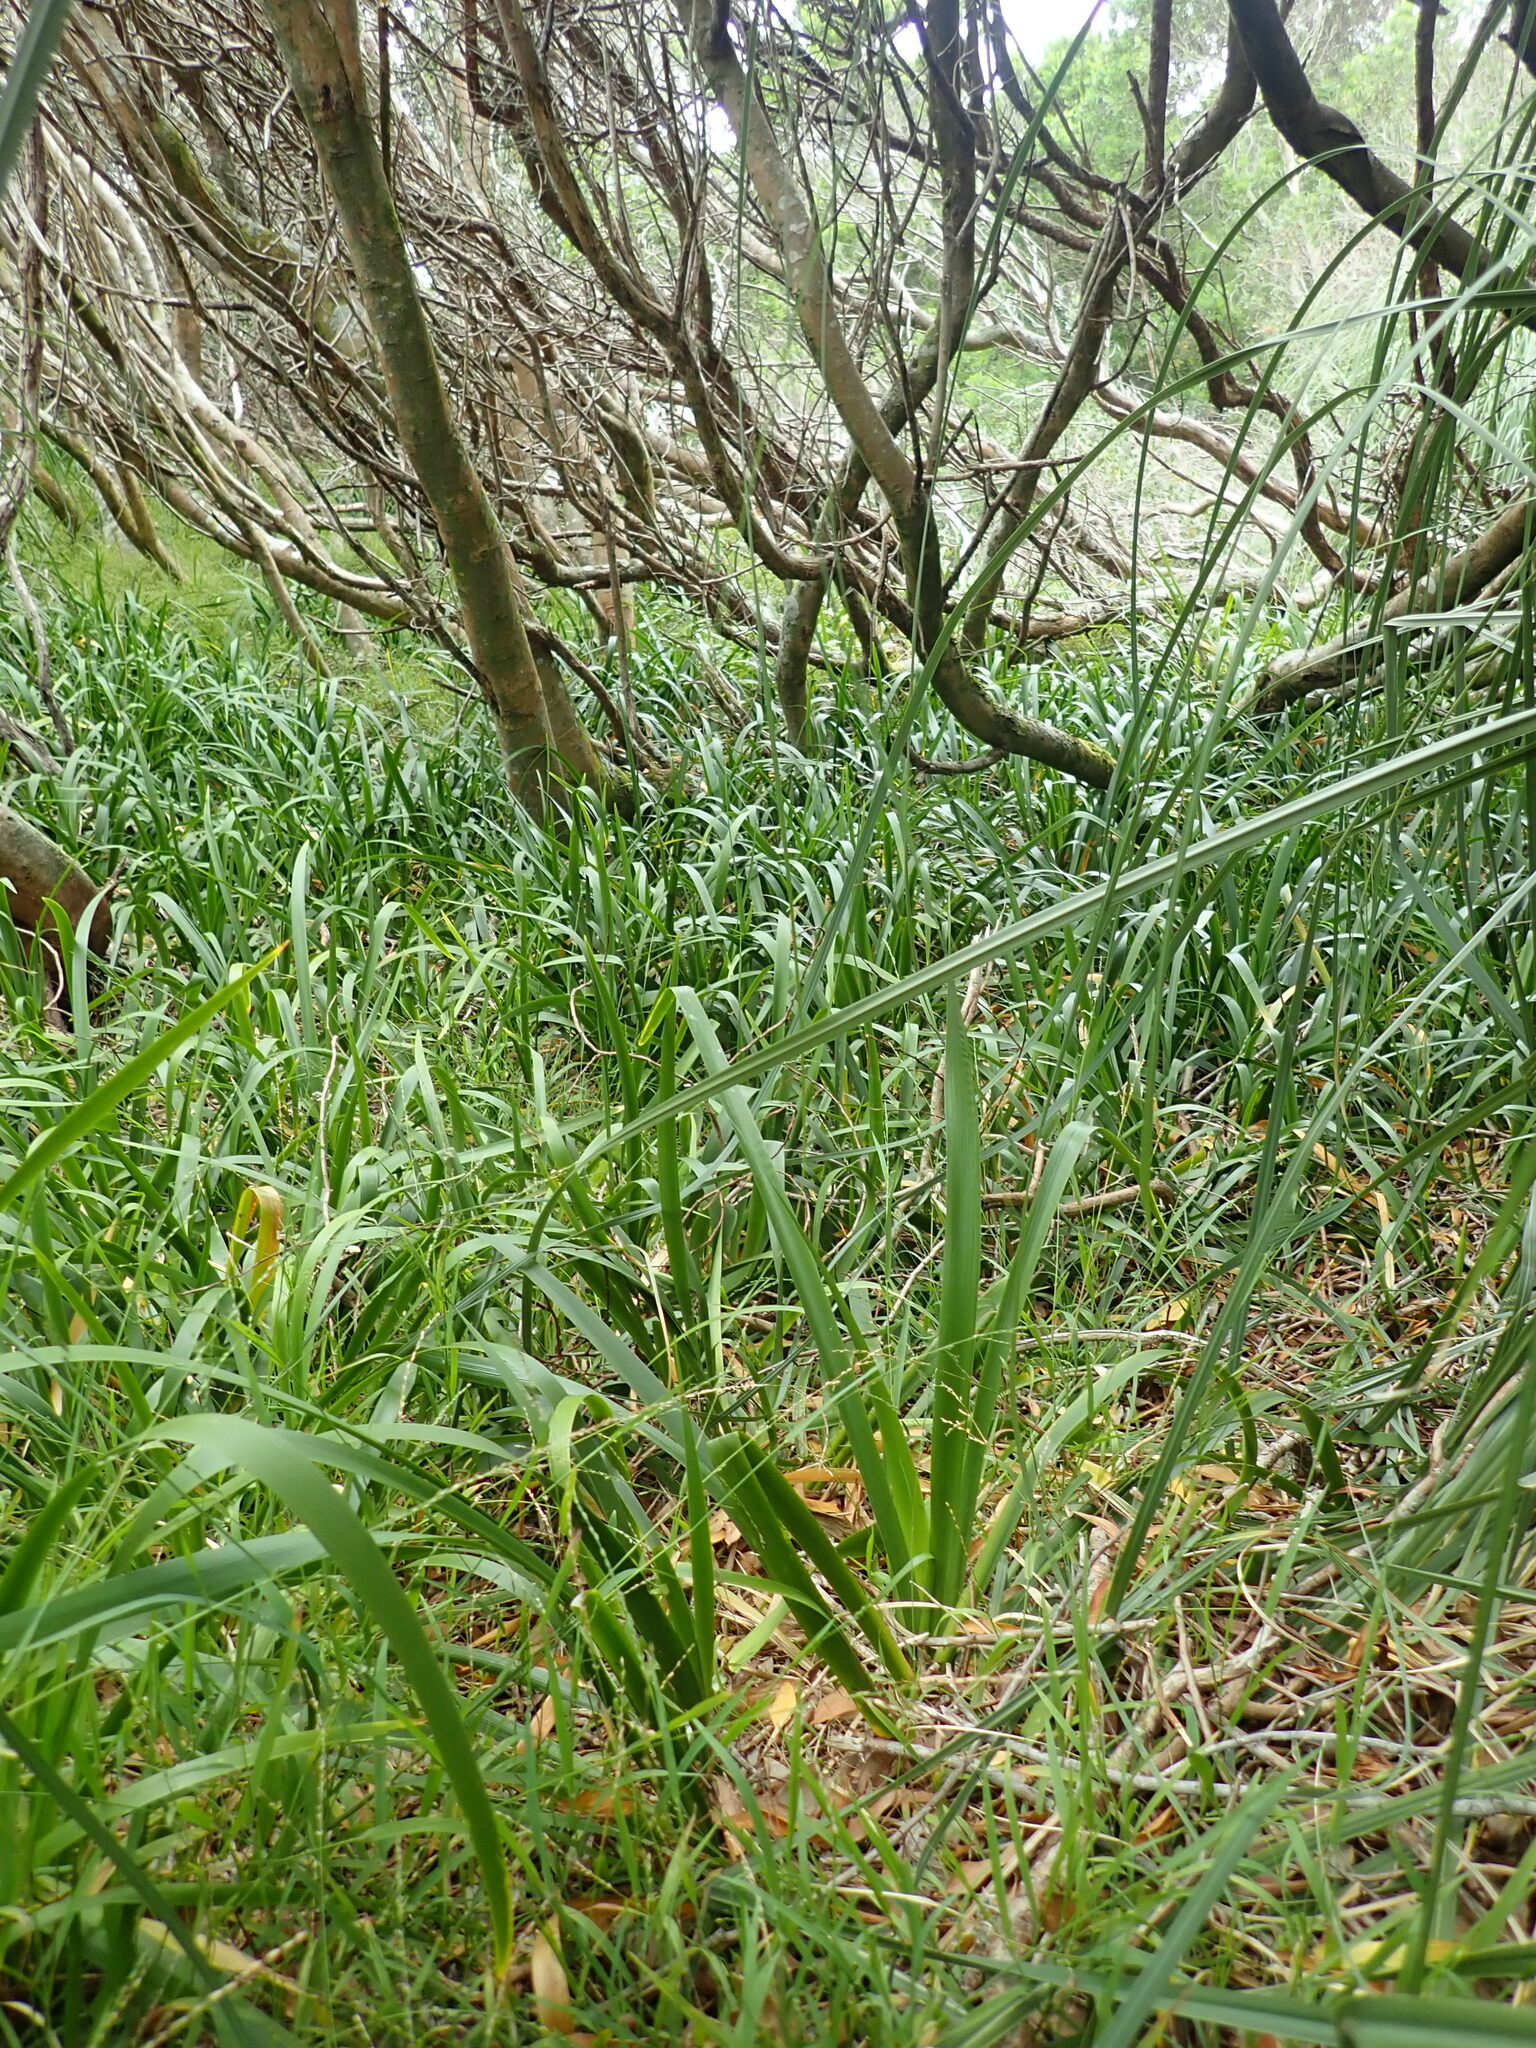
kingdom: Plantae
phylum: Tracheophyta
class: Liliopsida
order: Asparagales
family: Iridaceae
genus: Iris
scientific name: Iris foetidissima
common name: Stinking iris
